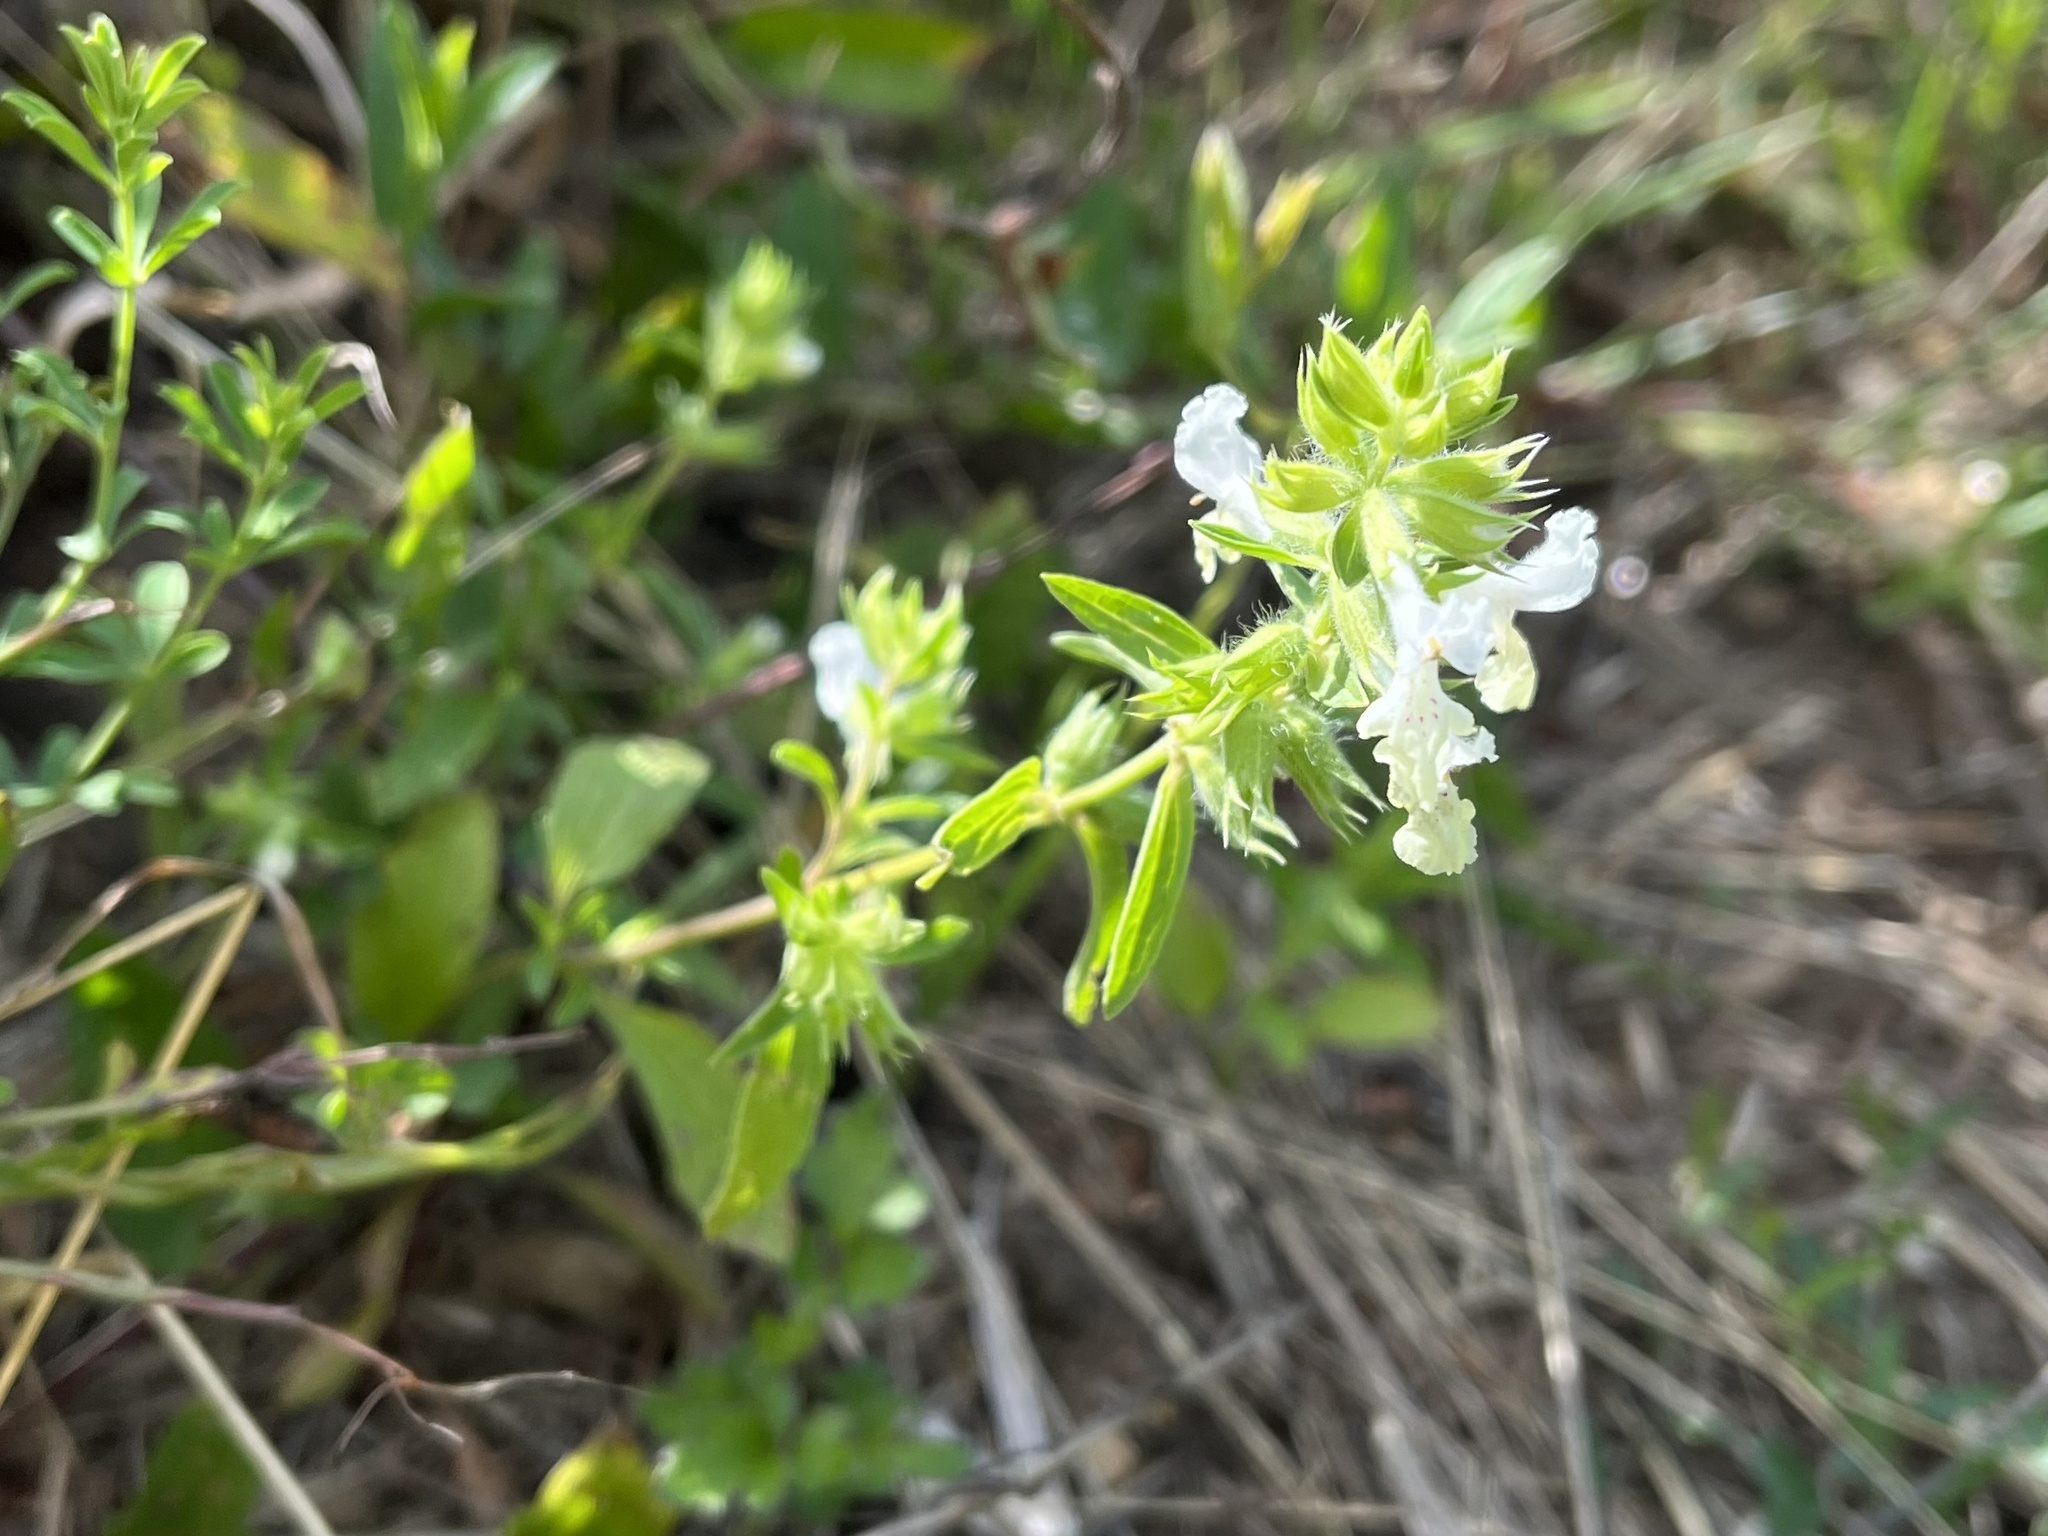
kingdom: Plantae
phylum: Tracheophyta
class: Magnoliopsida
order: Lamiales
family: Lamiaceae
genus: Stachys
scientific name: Stachys annua
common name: Annual yellow-woundwort
